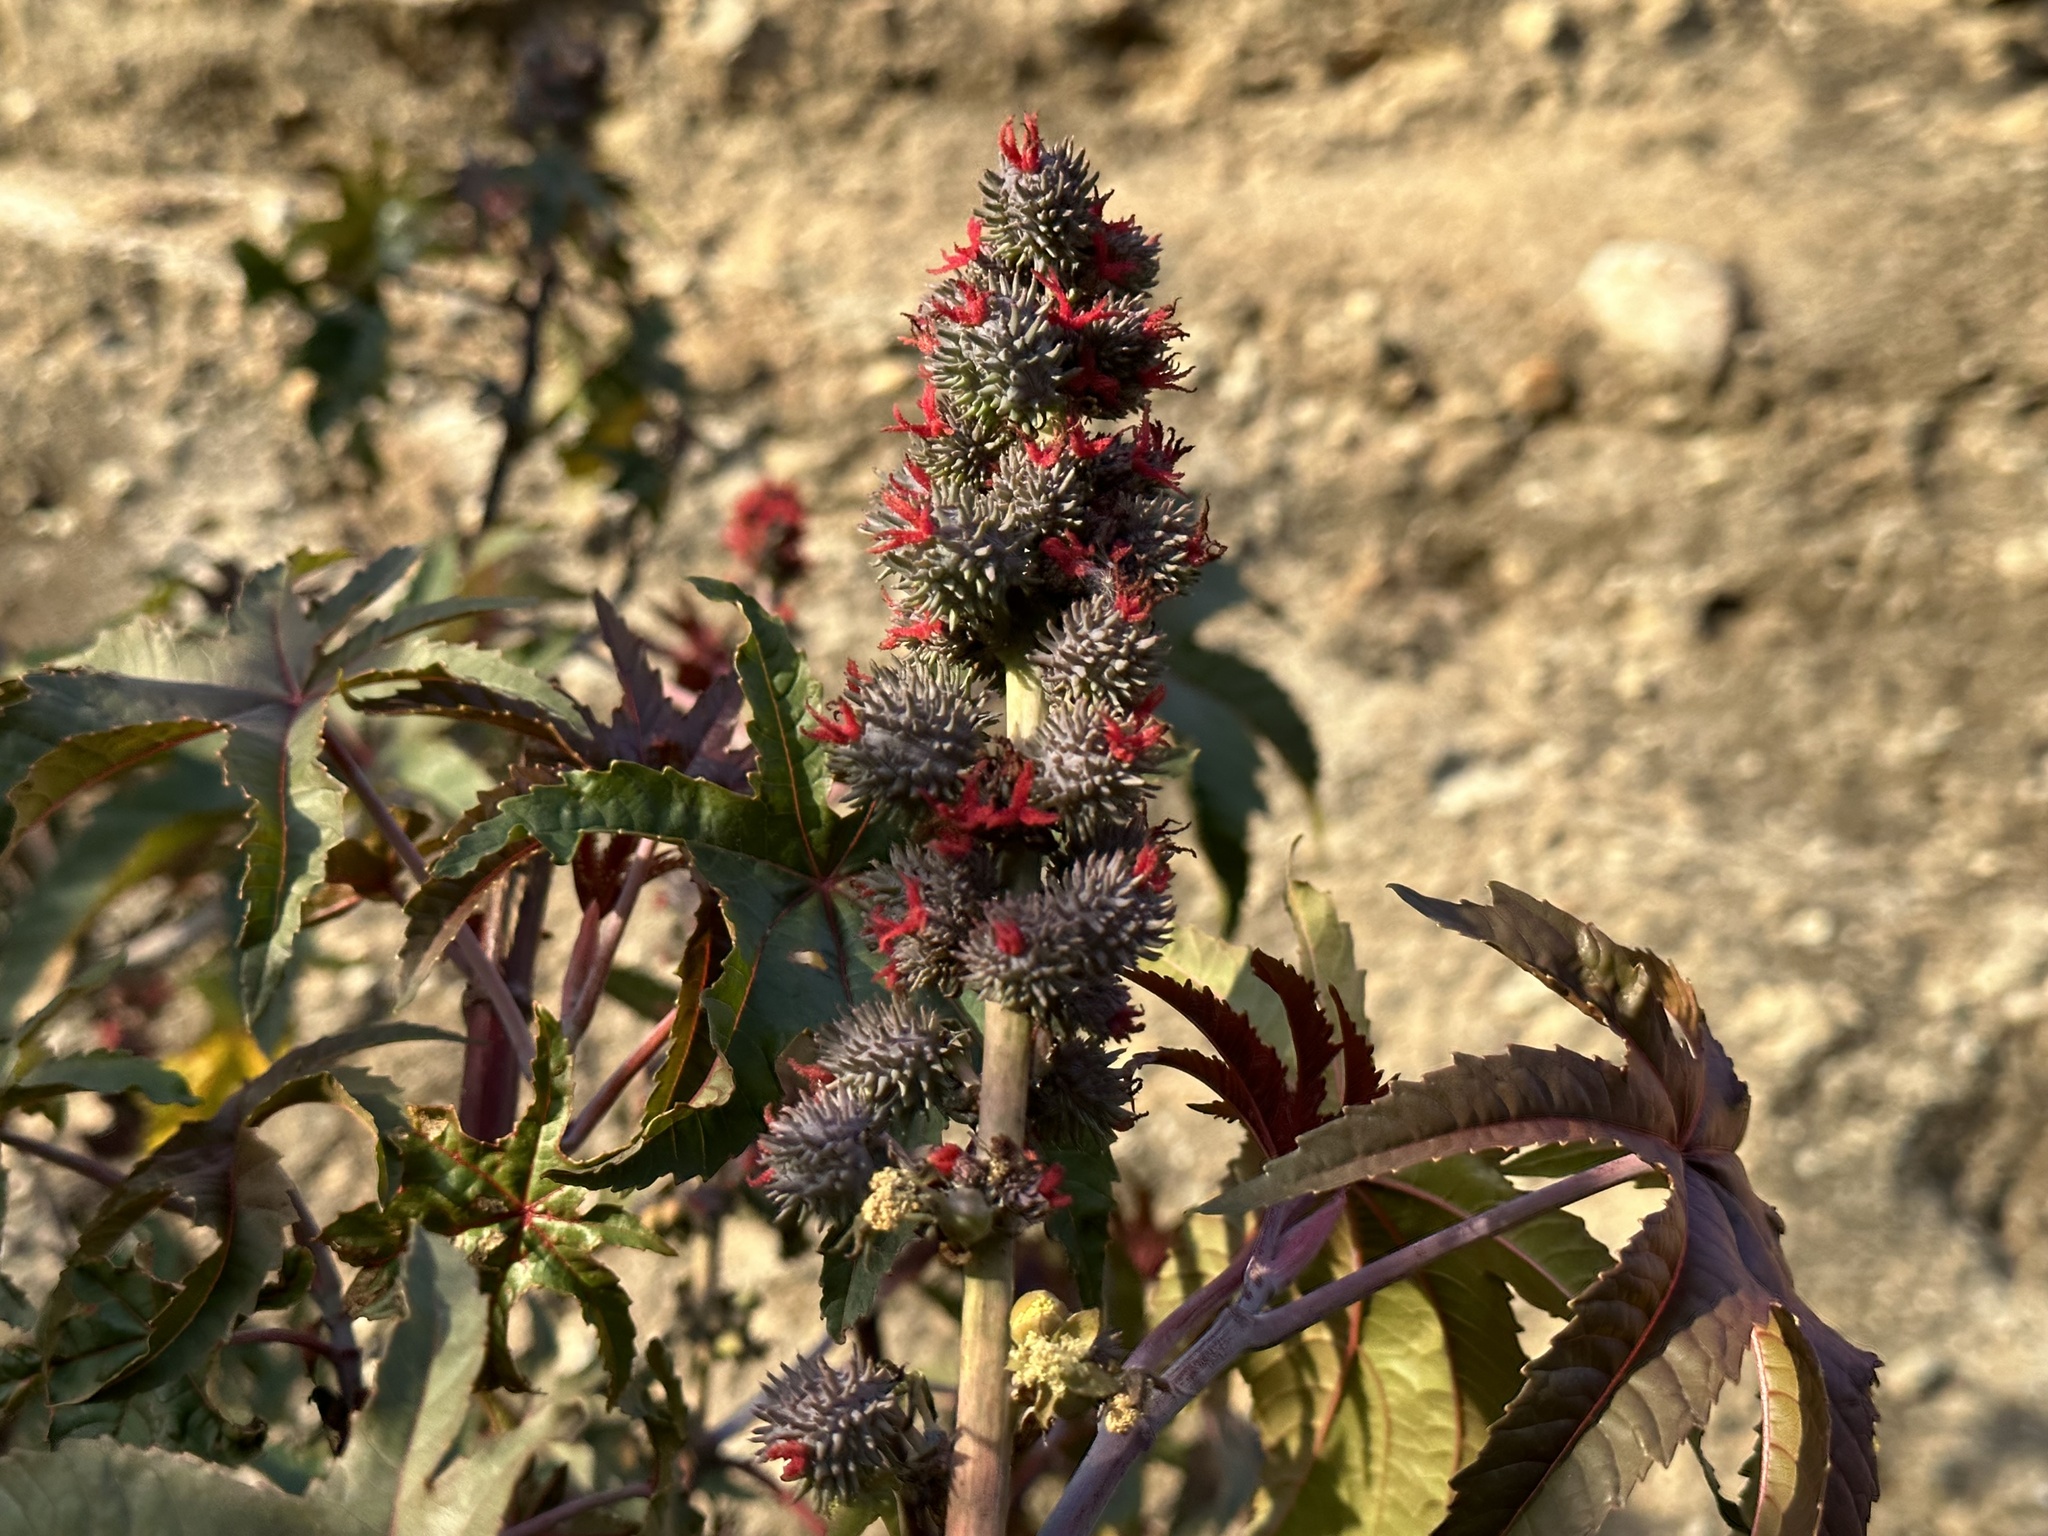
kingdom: Plantae
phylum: Tracheophyta
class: Magnoliopsida
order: Malpighiales
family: Euphorbiaceae
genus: Ricinus
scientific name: Ricinus communis
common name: Castor-oil-plant
